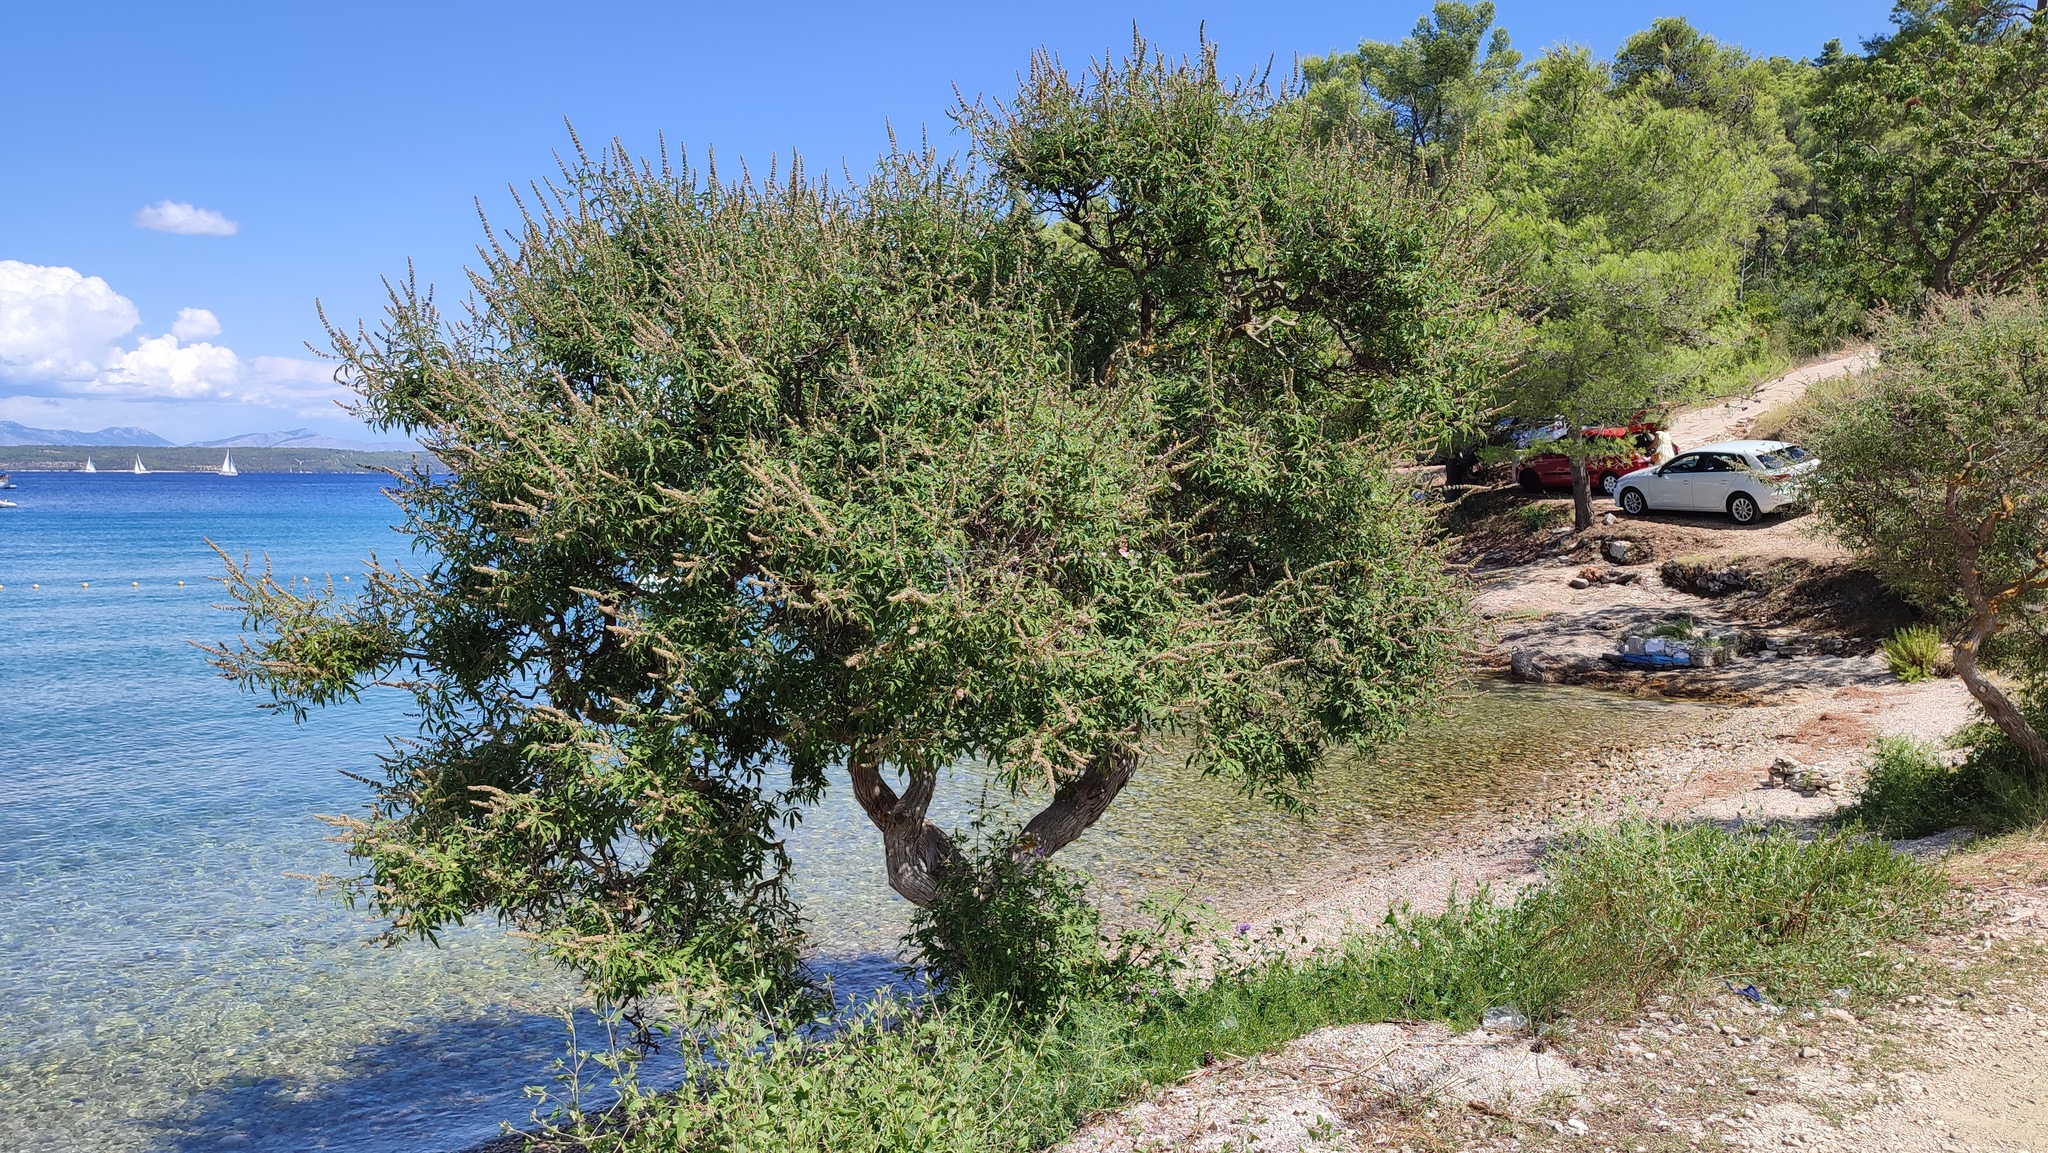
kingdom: Plantae
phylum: Tracheophyta
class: Magnoliopsida
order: Lamiales
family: Lamiaceae
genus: Vitex
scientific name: Vitex agnus-castus
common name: Chasteberry
